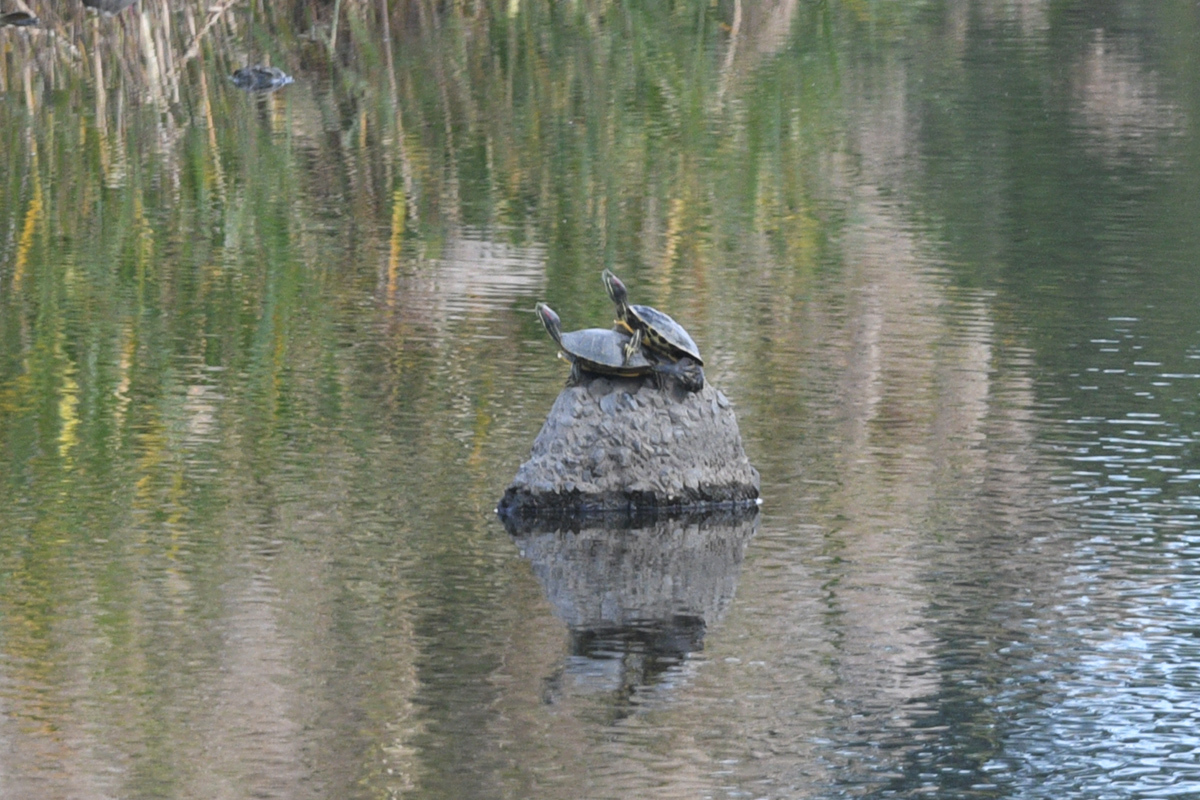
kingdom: Animalia
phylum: Chordata
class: Testudines
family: Emydidae
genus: Trachemys
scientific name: Trachemys scripta
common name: Slider
